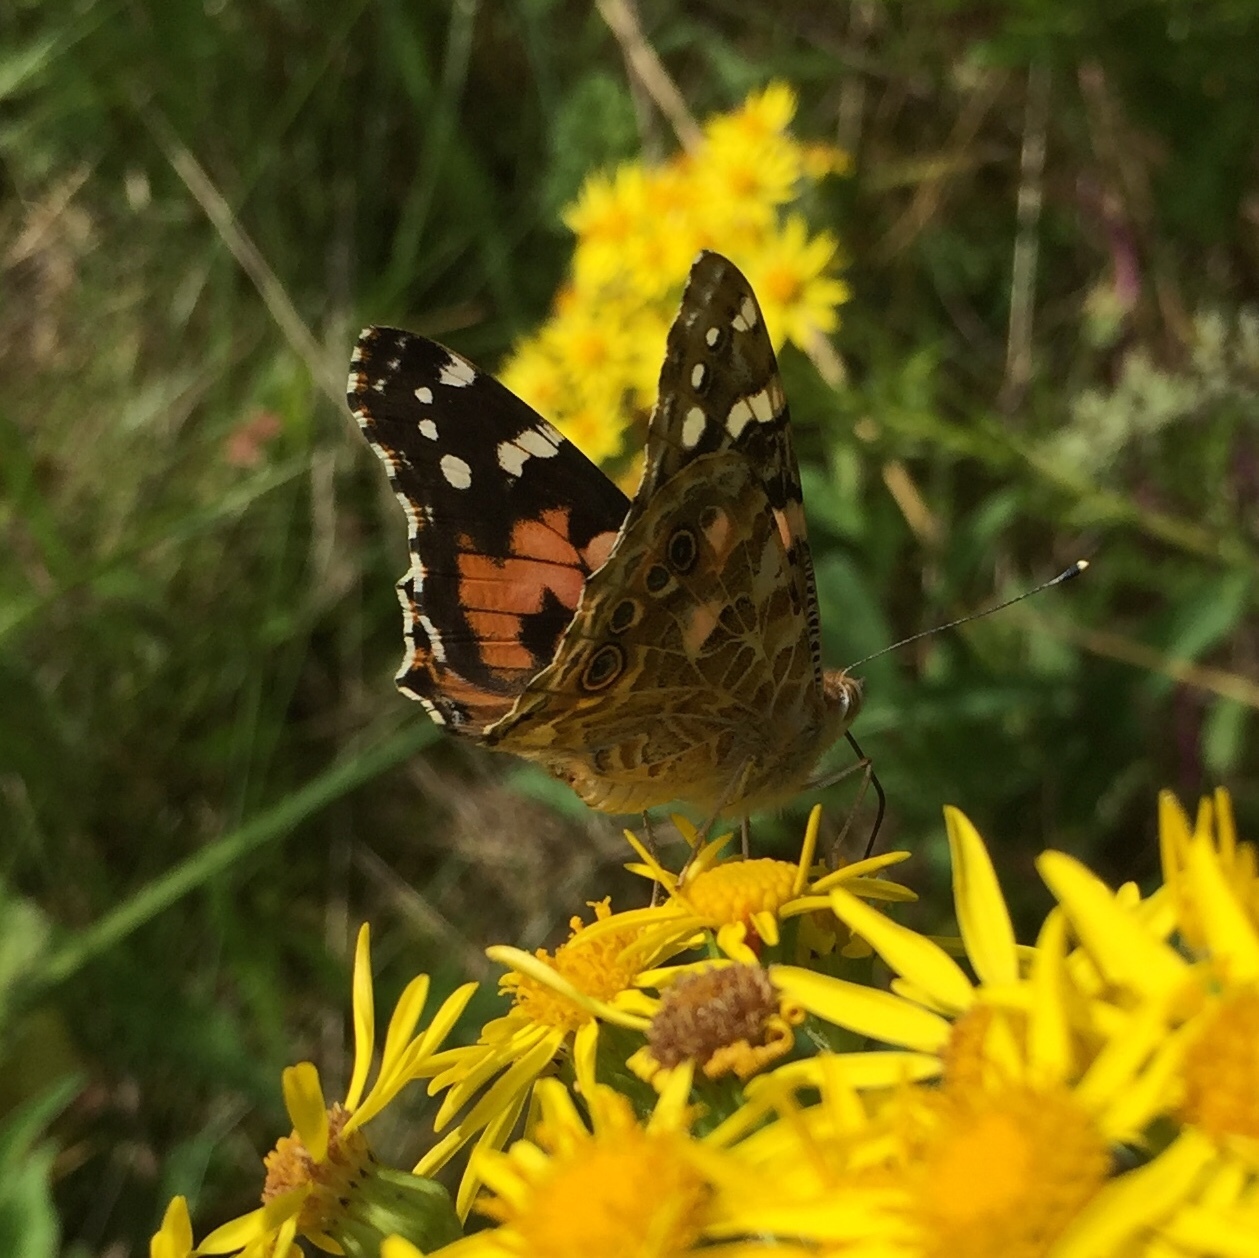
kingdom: Animalia
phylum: Arthropoda
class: Insecta
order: Lepidoptera
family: Nymphalidae
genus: Vanessa
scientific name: Vanessa cardui
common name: Painted lady
